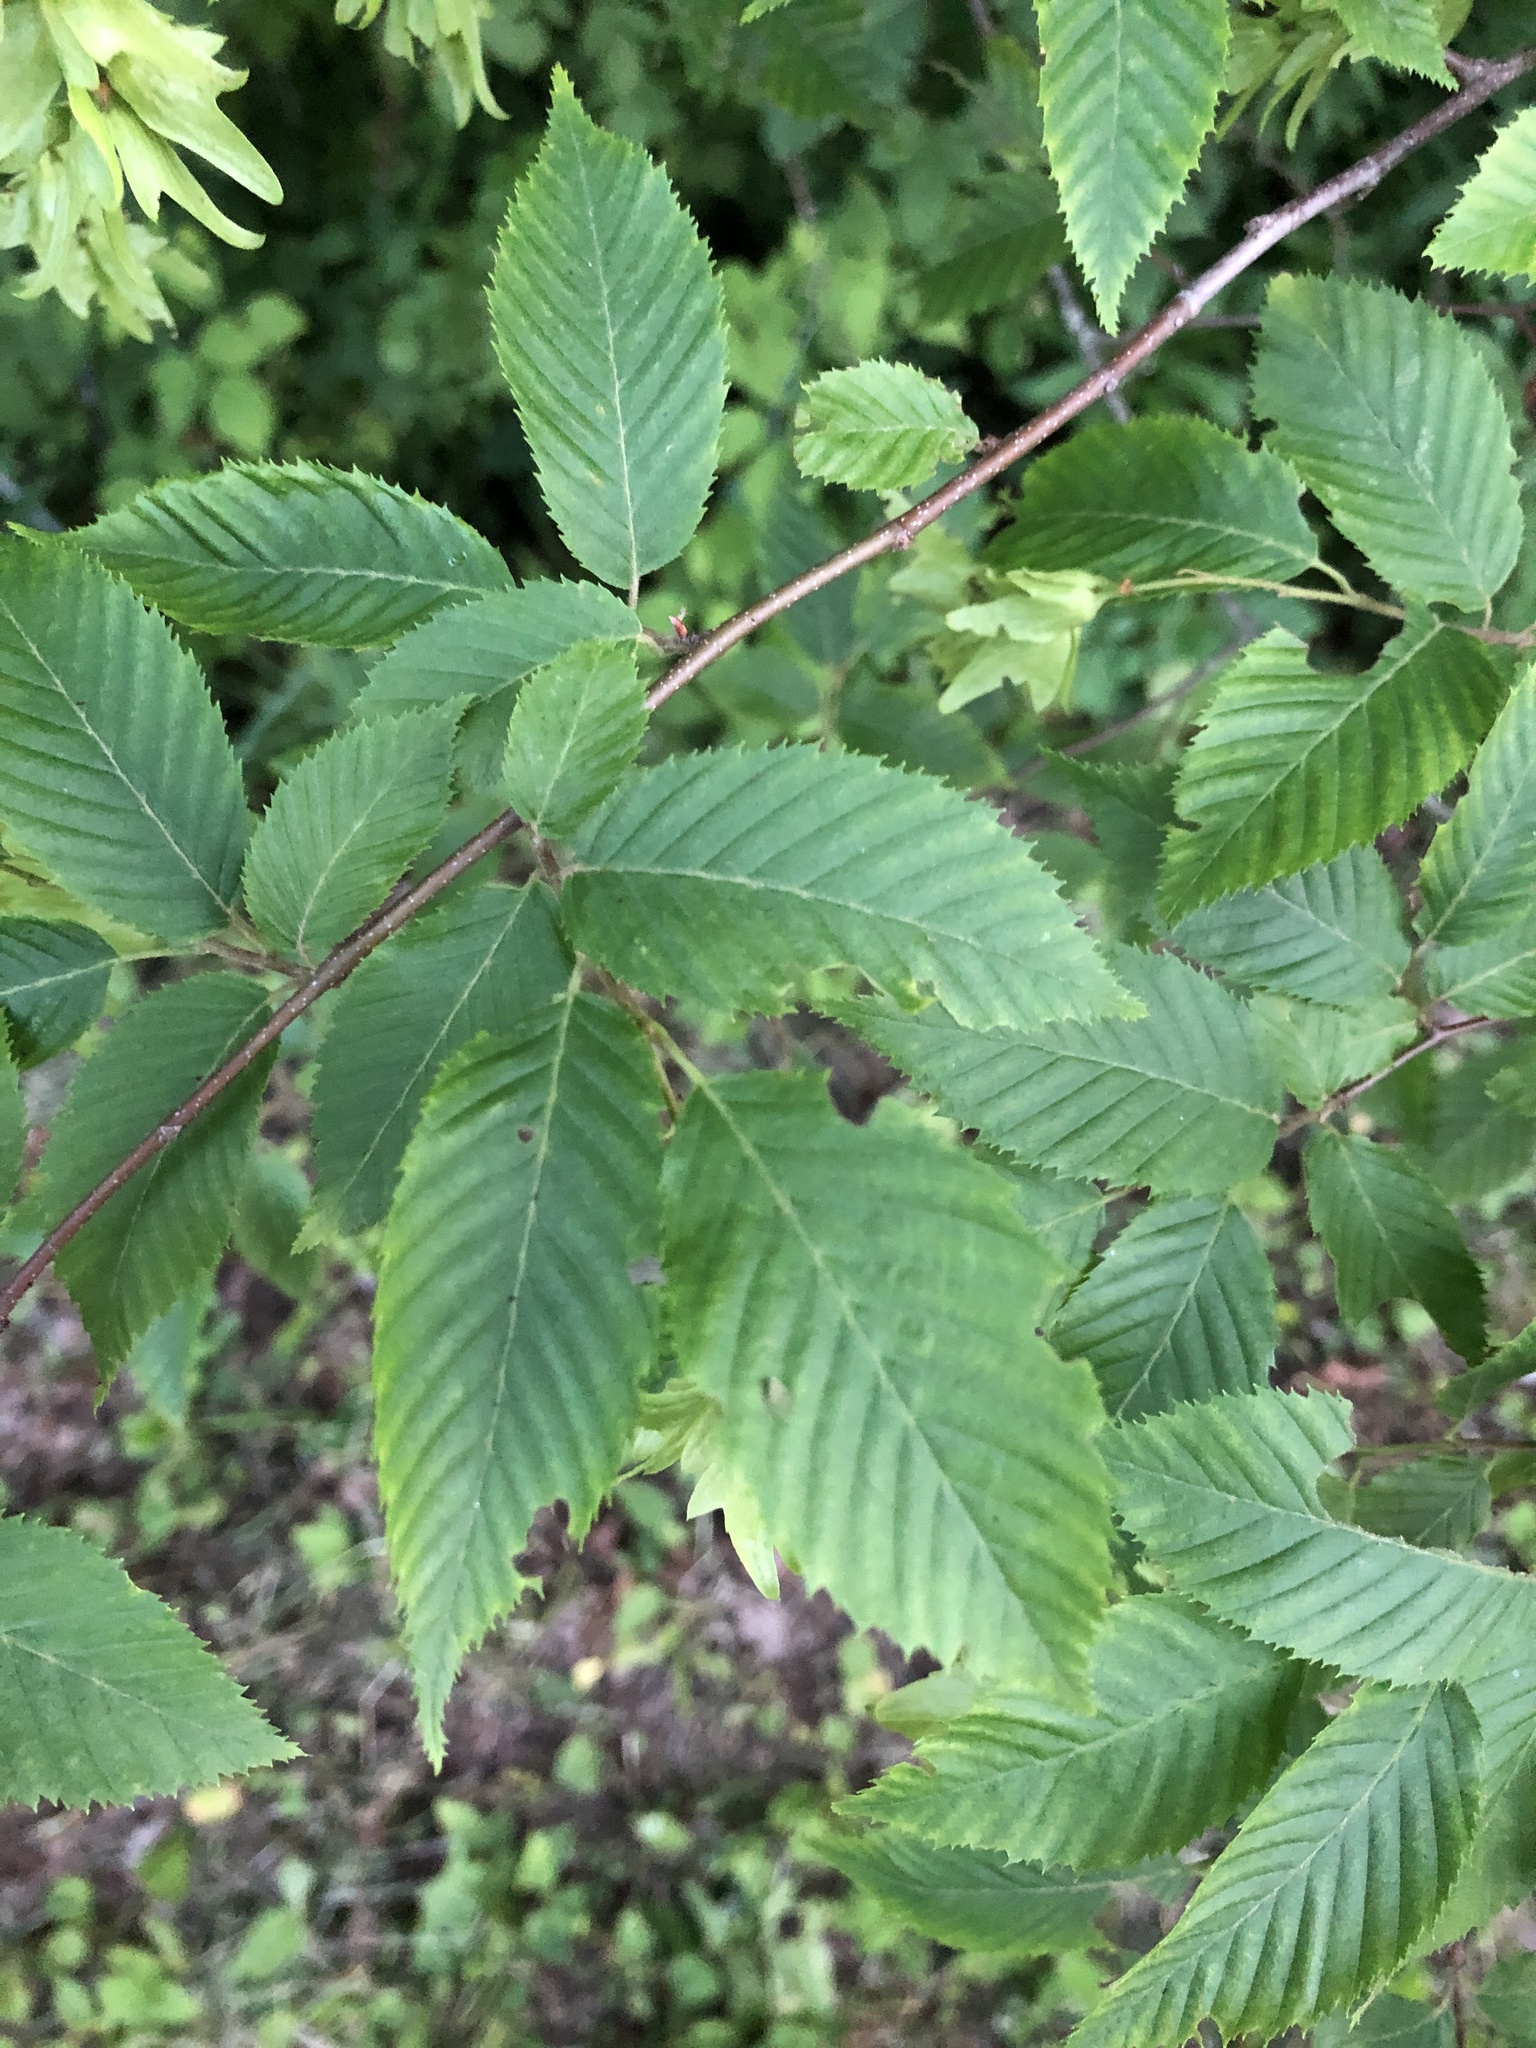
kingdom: Plantae
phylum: Tracheophyta
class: Magnoliopsida
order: Fagales
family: Betulaceae
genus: Carpinus
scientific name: Carpinus caroliniana
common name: American hornbeam
